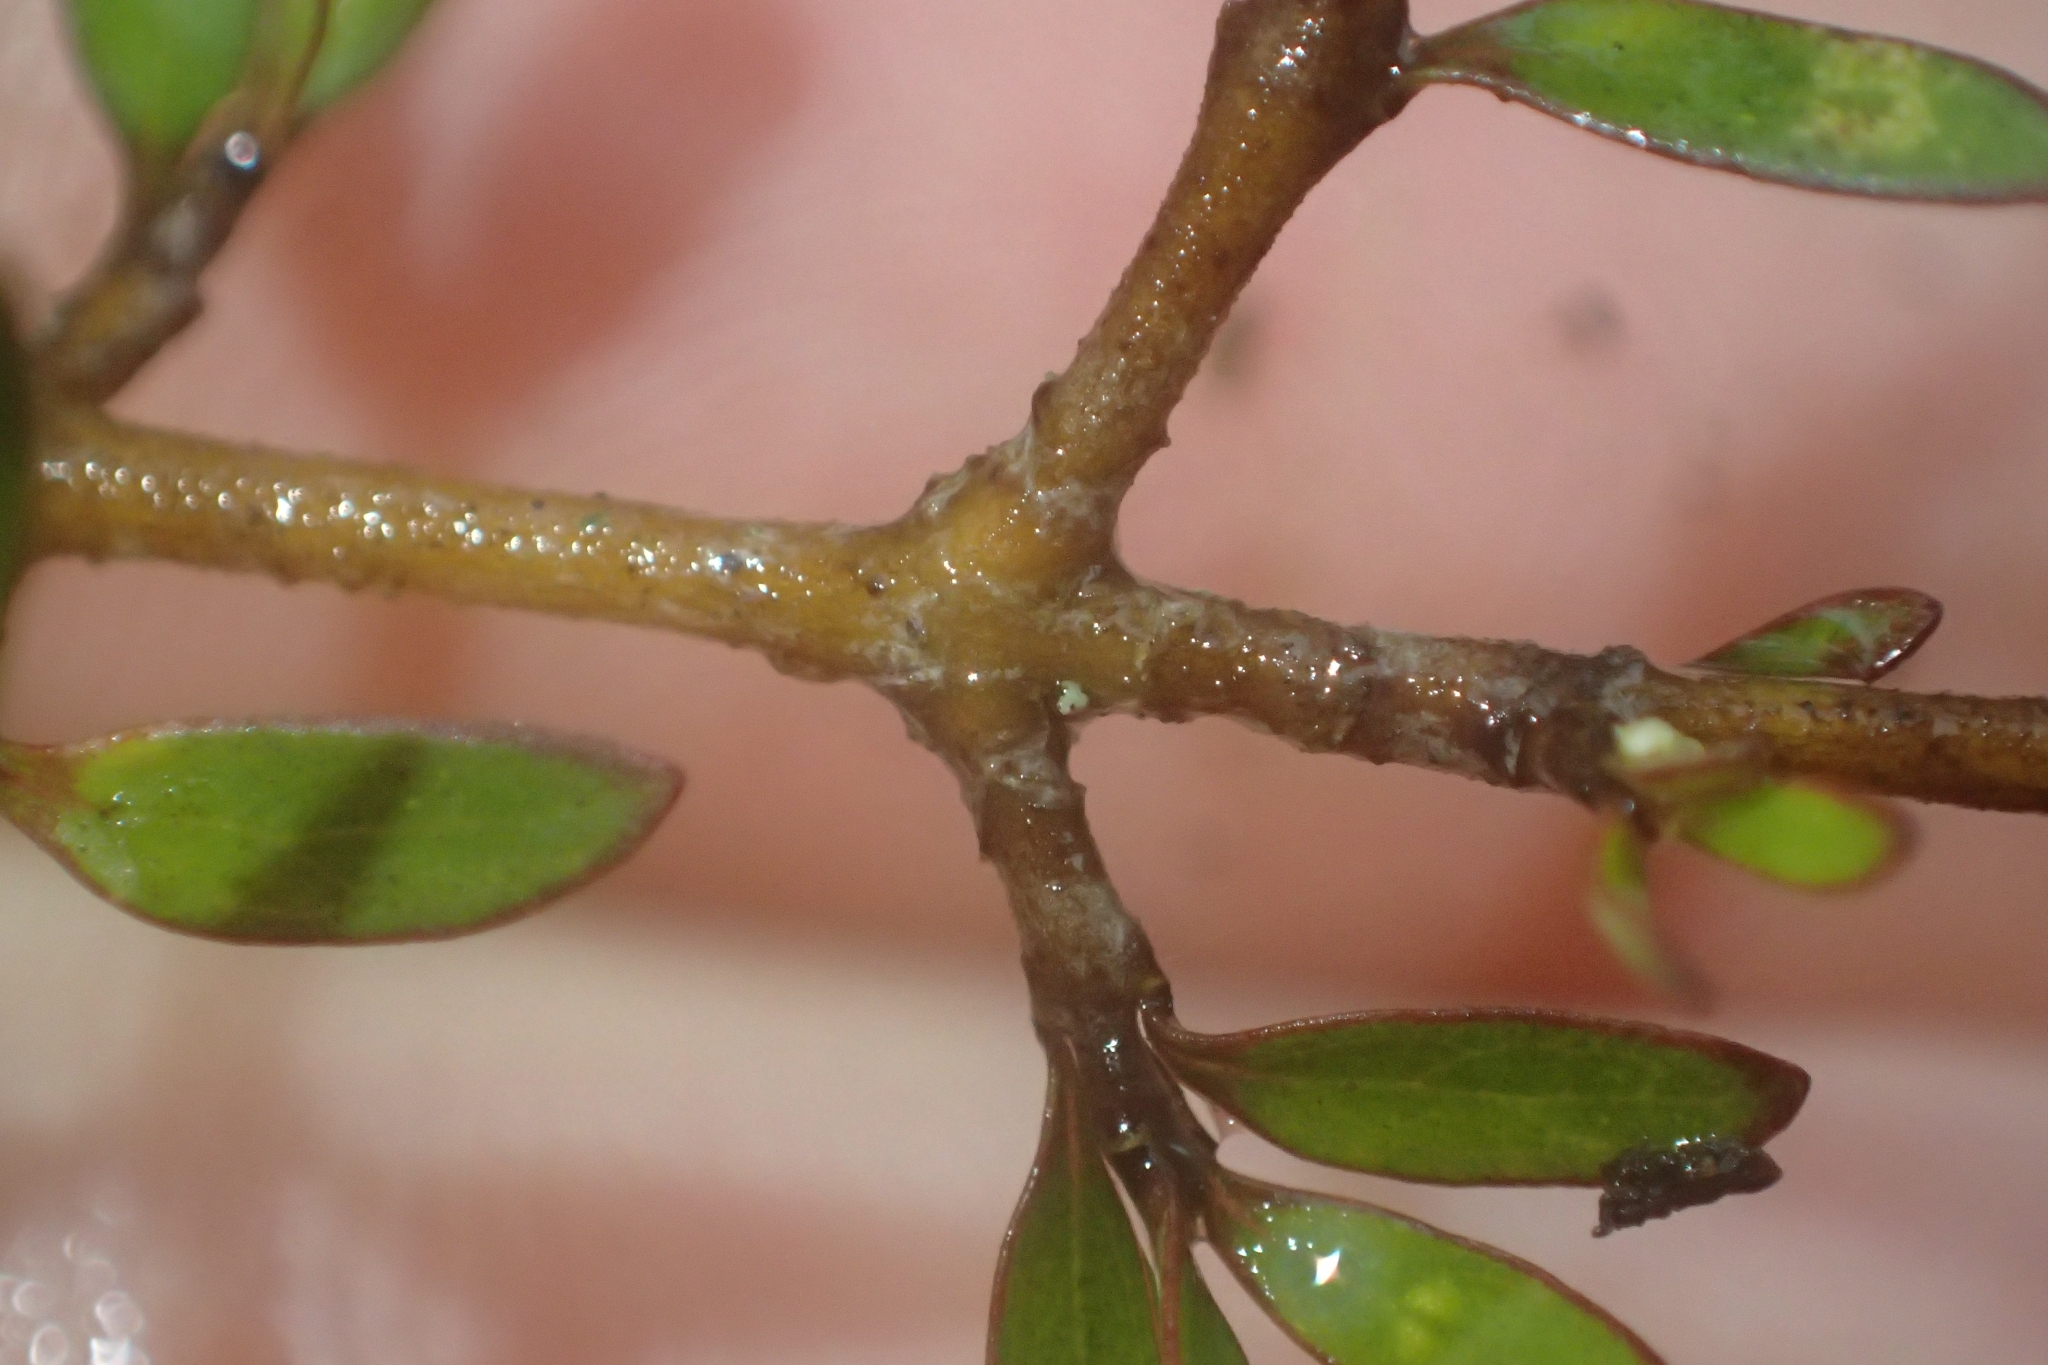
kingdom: Plantae
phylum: Tracheophyta
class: Magnoliopsida
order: Gentianales
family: Rubiaceae
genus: Coprosma
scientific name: Coprosma propinqua
